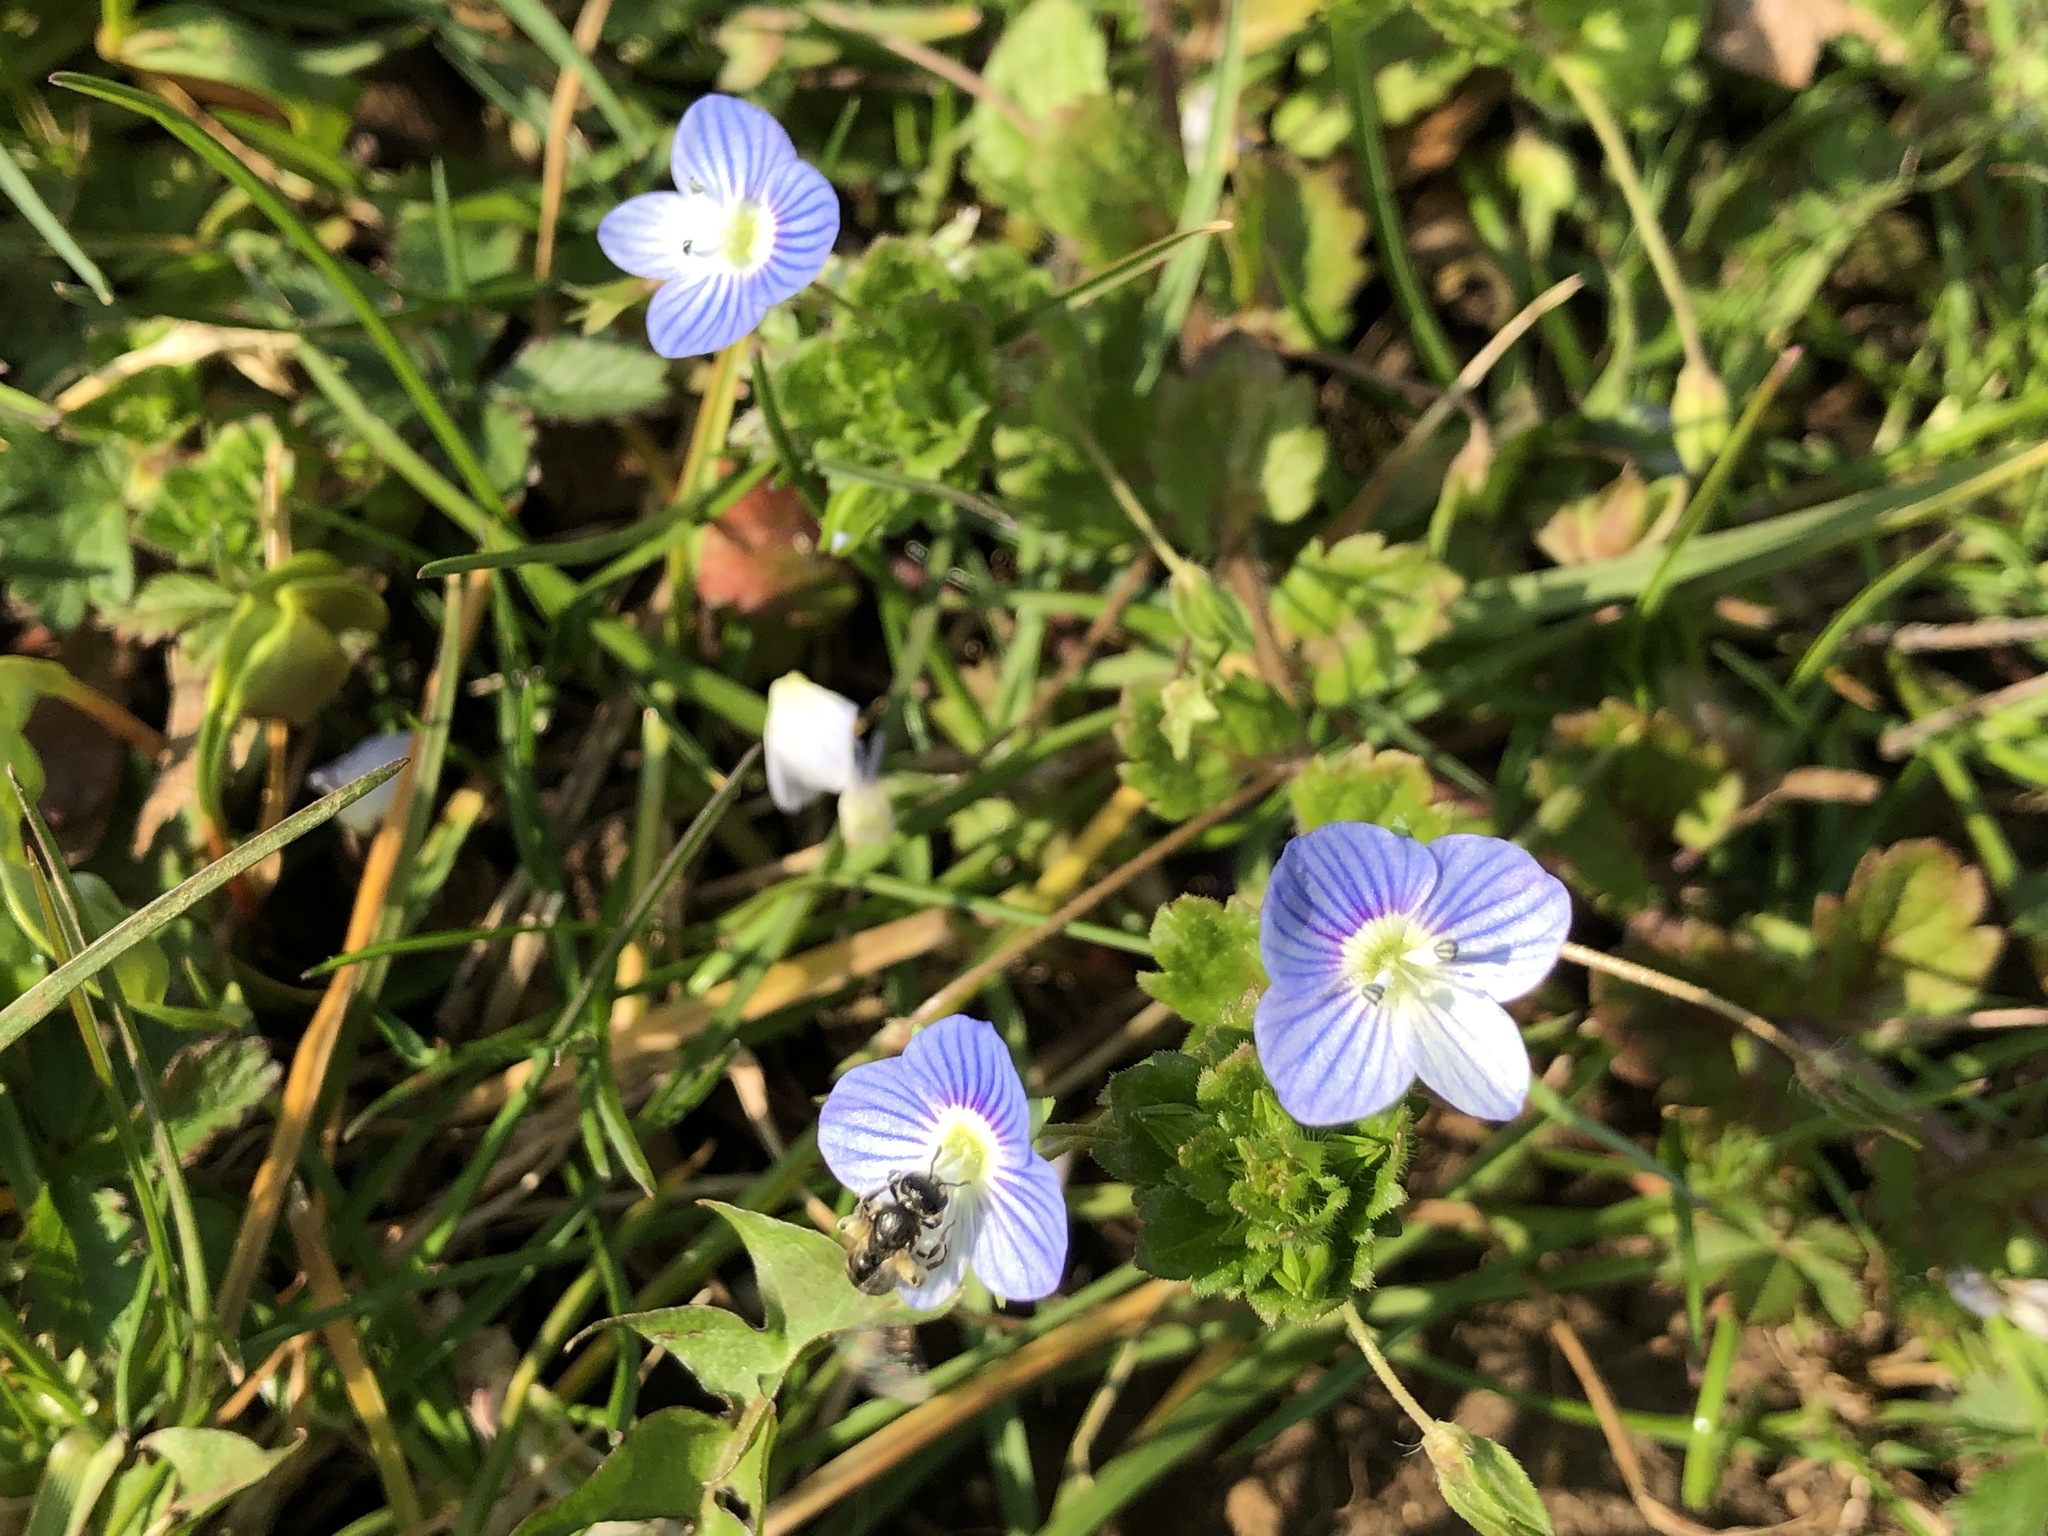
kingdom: Plantae
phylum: Tracheophyta
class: Magnoliopsida
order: Lamiales
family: Plantaginaceae
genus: Veronica
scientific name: Veronica persica
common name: Common field-speedwell
